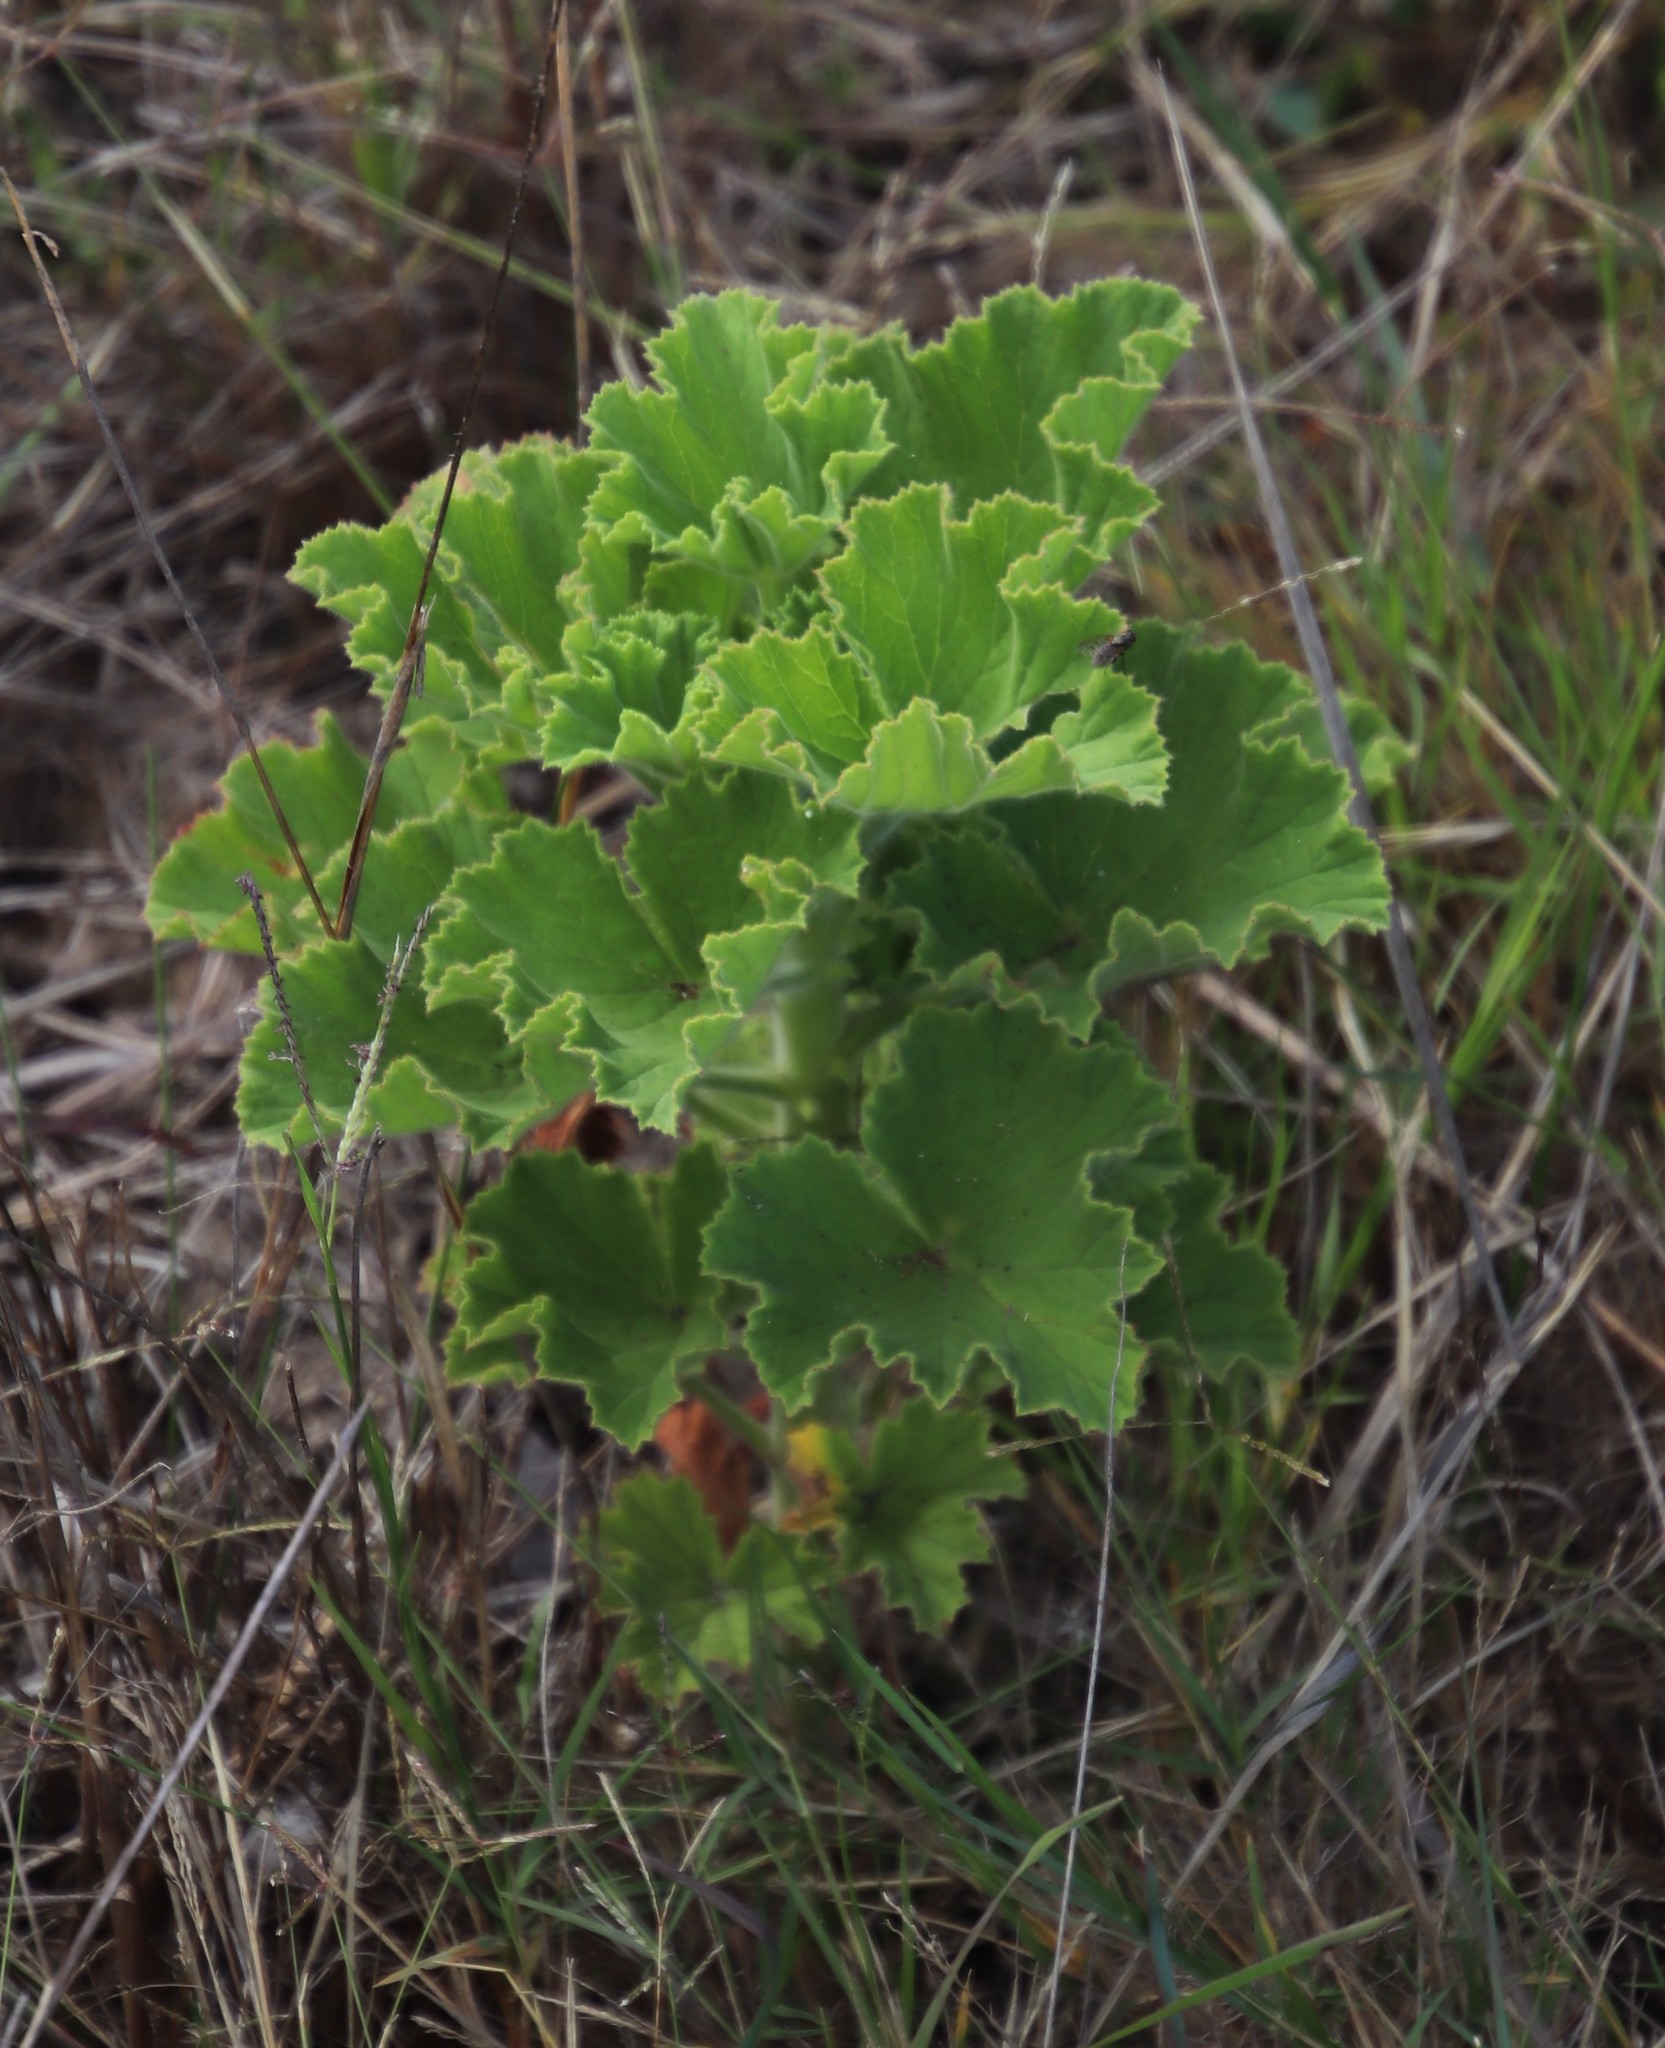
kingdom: Plantae
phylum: Tracheophyta
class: Magnoliopsida
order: Geraniales
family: Geraniaceae
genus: Pelargonium
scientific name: Pelargonium cucullatum
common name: Tree pelargonium
